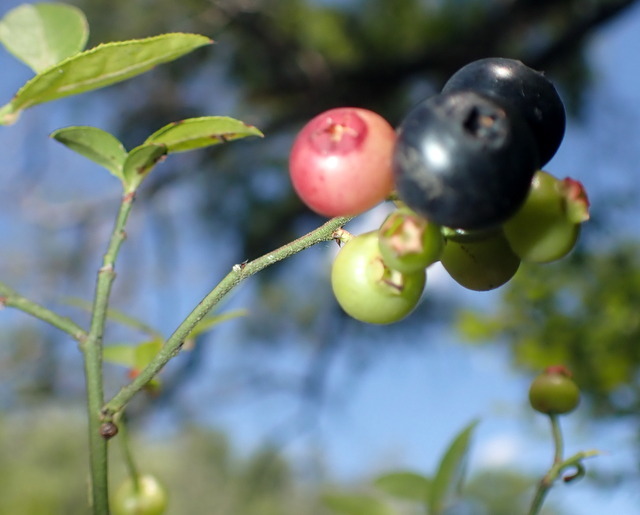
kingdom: Plantae
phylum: Tracheophyta
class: Magnoliopsida
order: Ericales
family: Ericaceae
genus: Vaccinium
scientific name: Vaccinium corymbosum
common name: Blueberry
